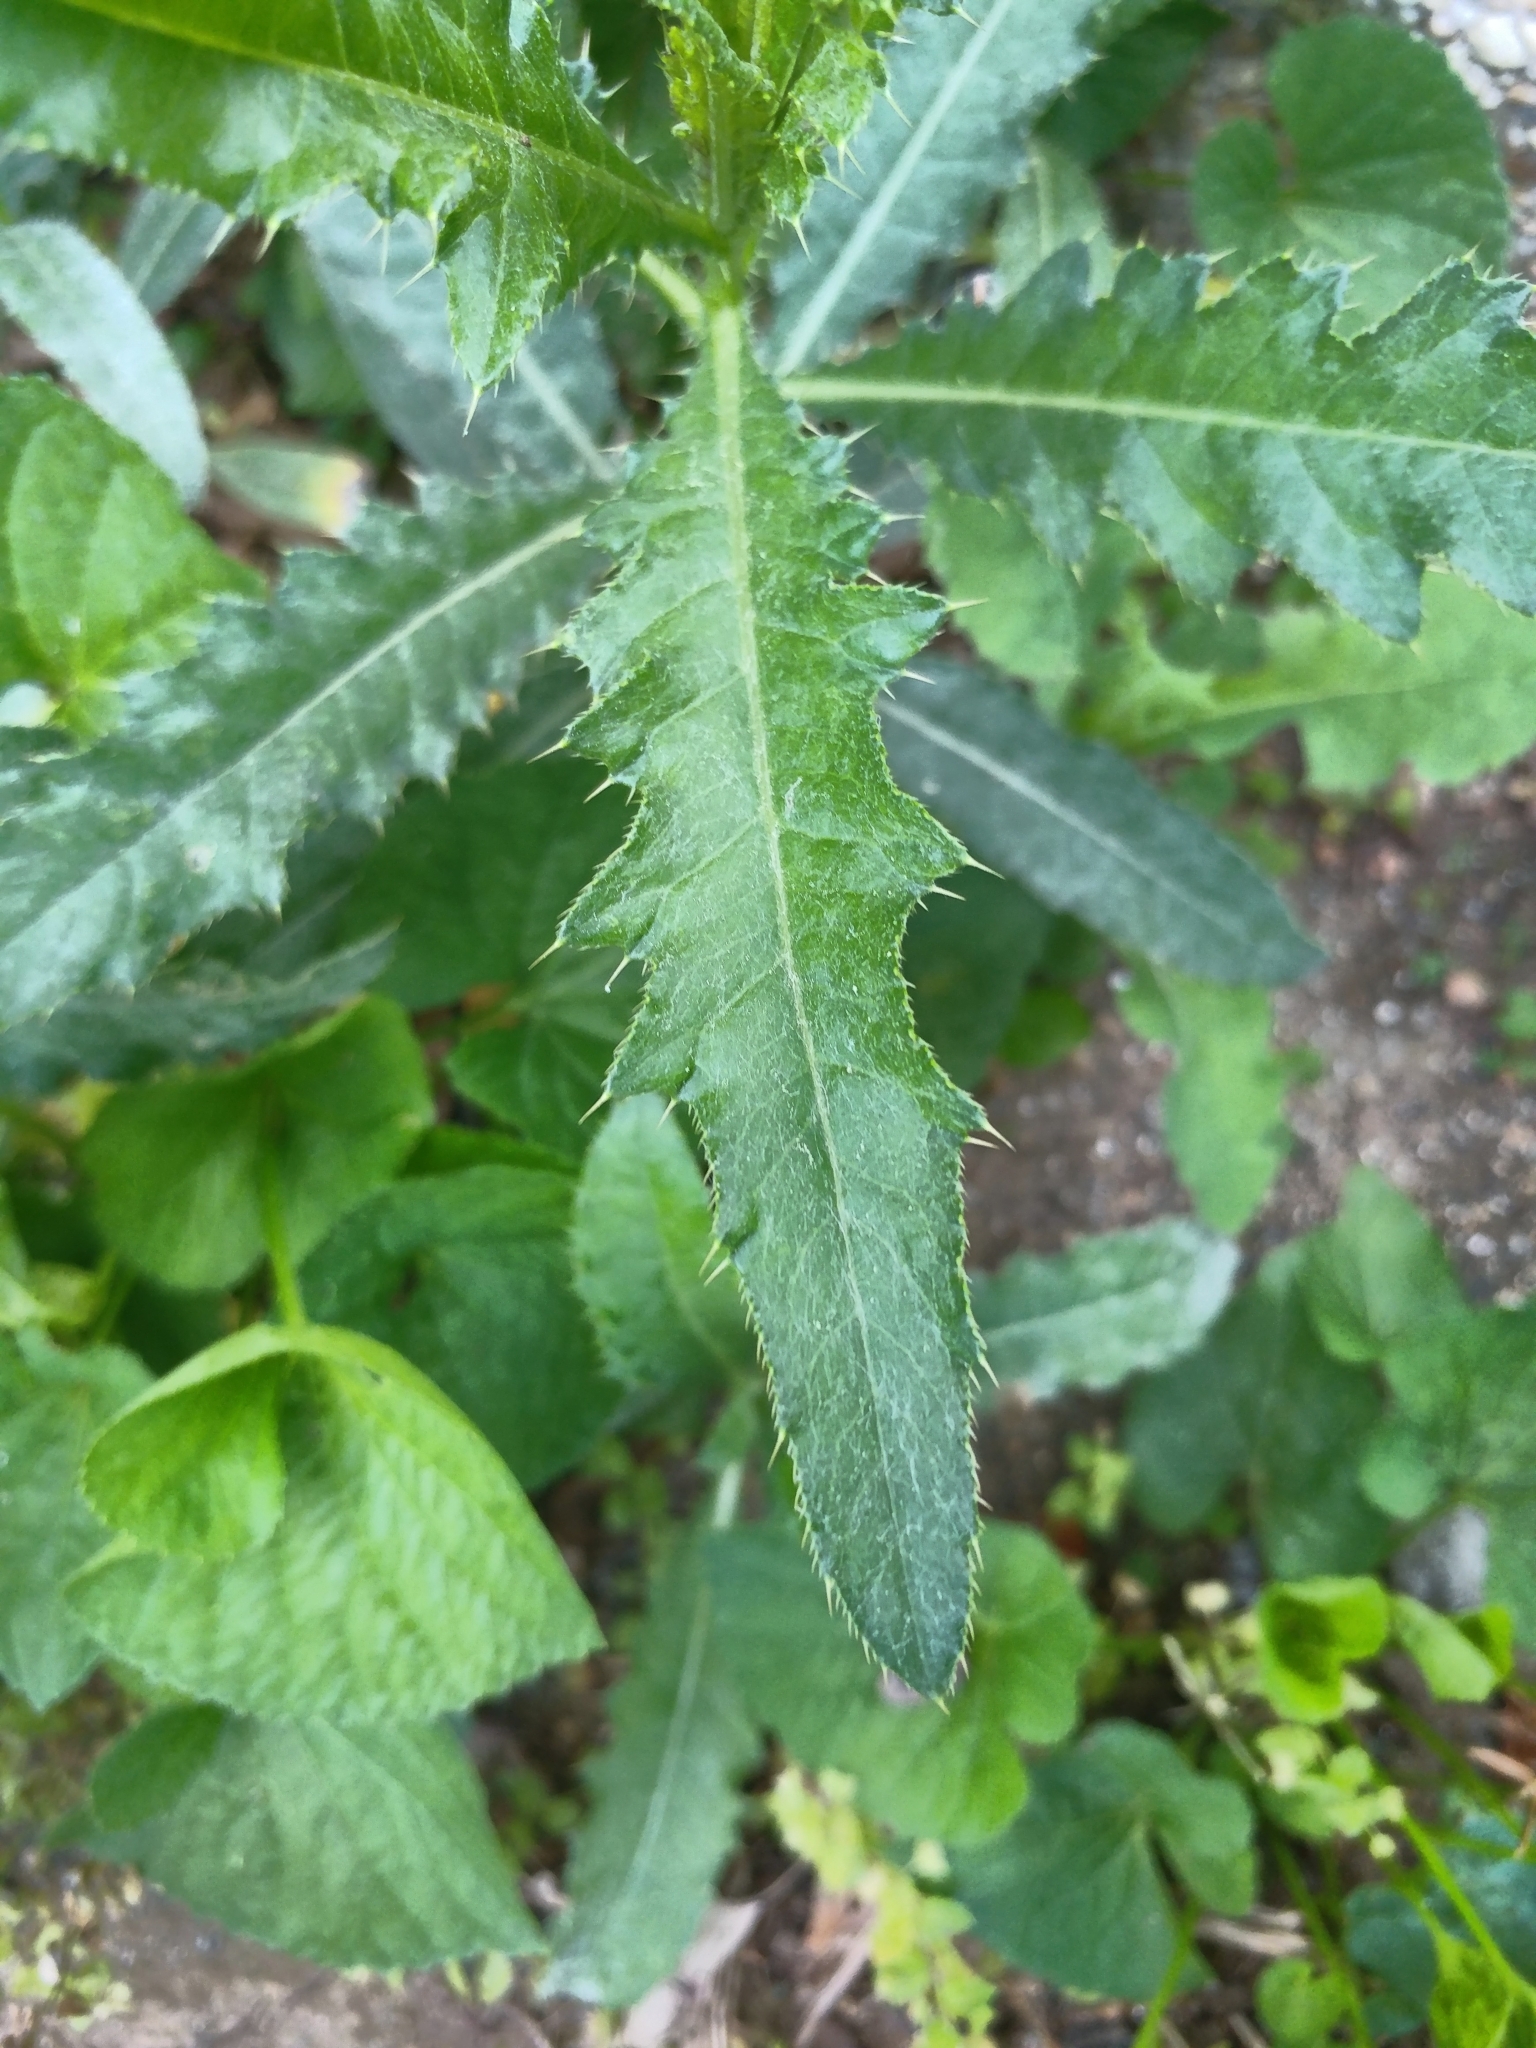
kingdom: Plantae
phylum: Tracheophyta
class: Magnoliopsida
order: Asterales
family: Asteraceae
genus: Cirsium
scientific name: Cirsium arvense
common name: Creeping thistle
